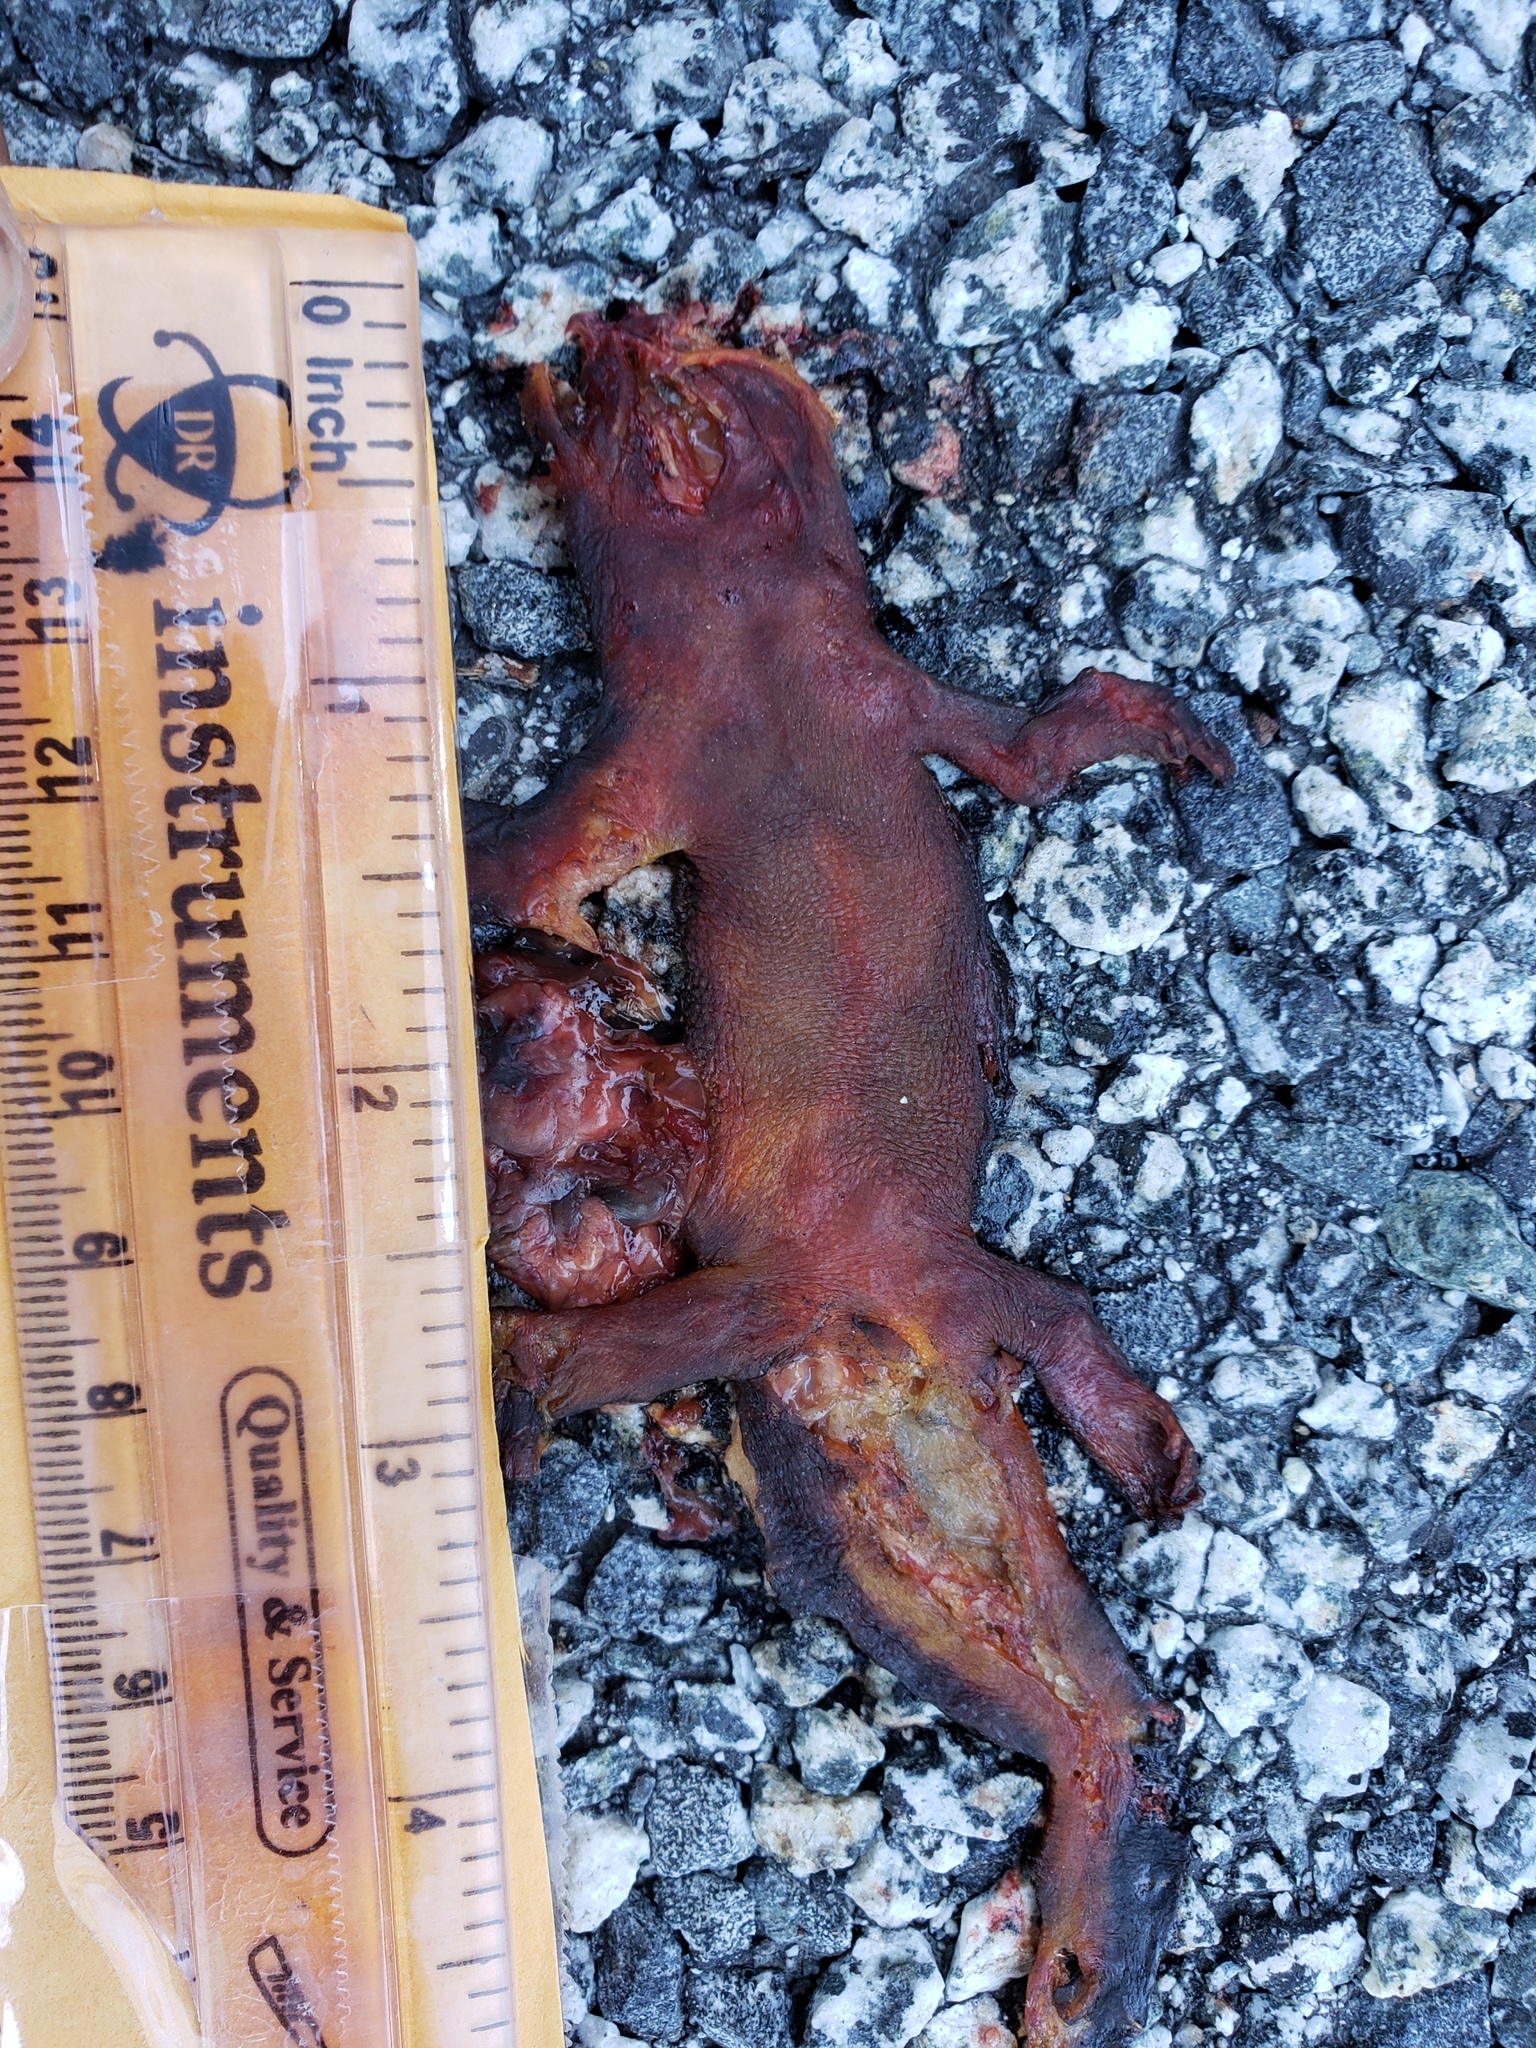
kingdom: Animalia
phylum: Chordata
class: Amphibia
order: Caudata
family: Salamandridae
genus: Taricha
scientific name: Taricha
